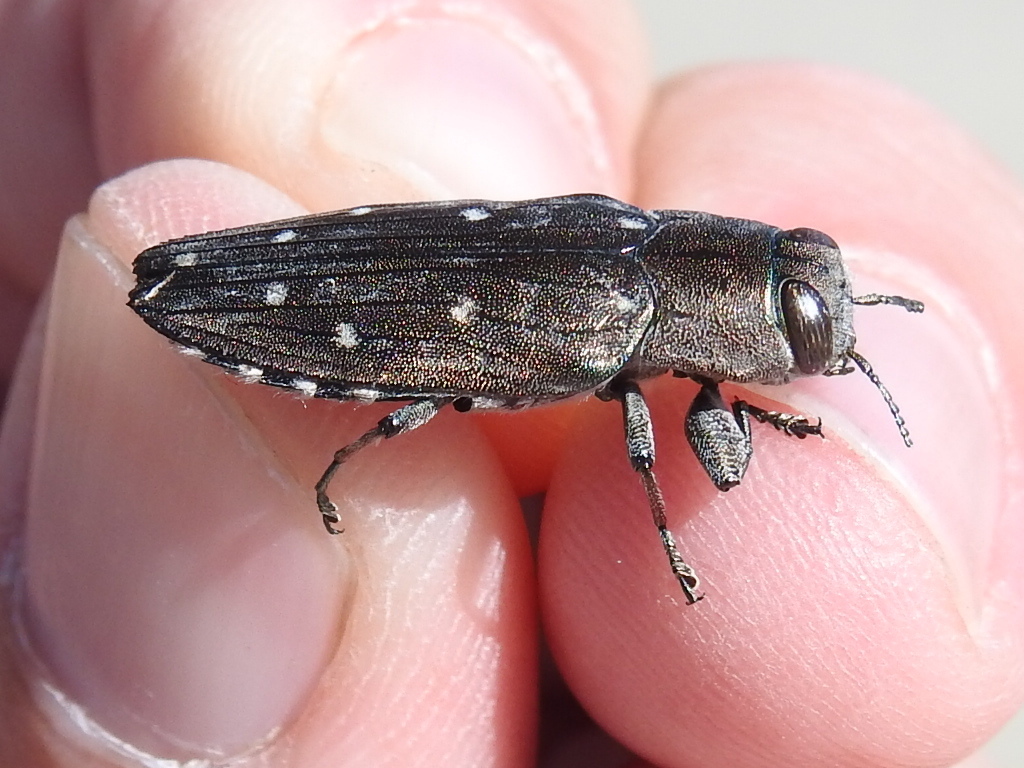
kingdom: Animalia
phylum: Arthropoda
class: Insecta
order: Coleoptera
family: Buprestidae
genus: Chrysobothris
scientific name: Chrysobothris basalis
